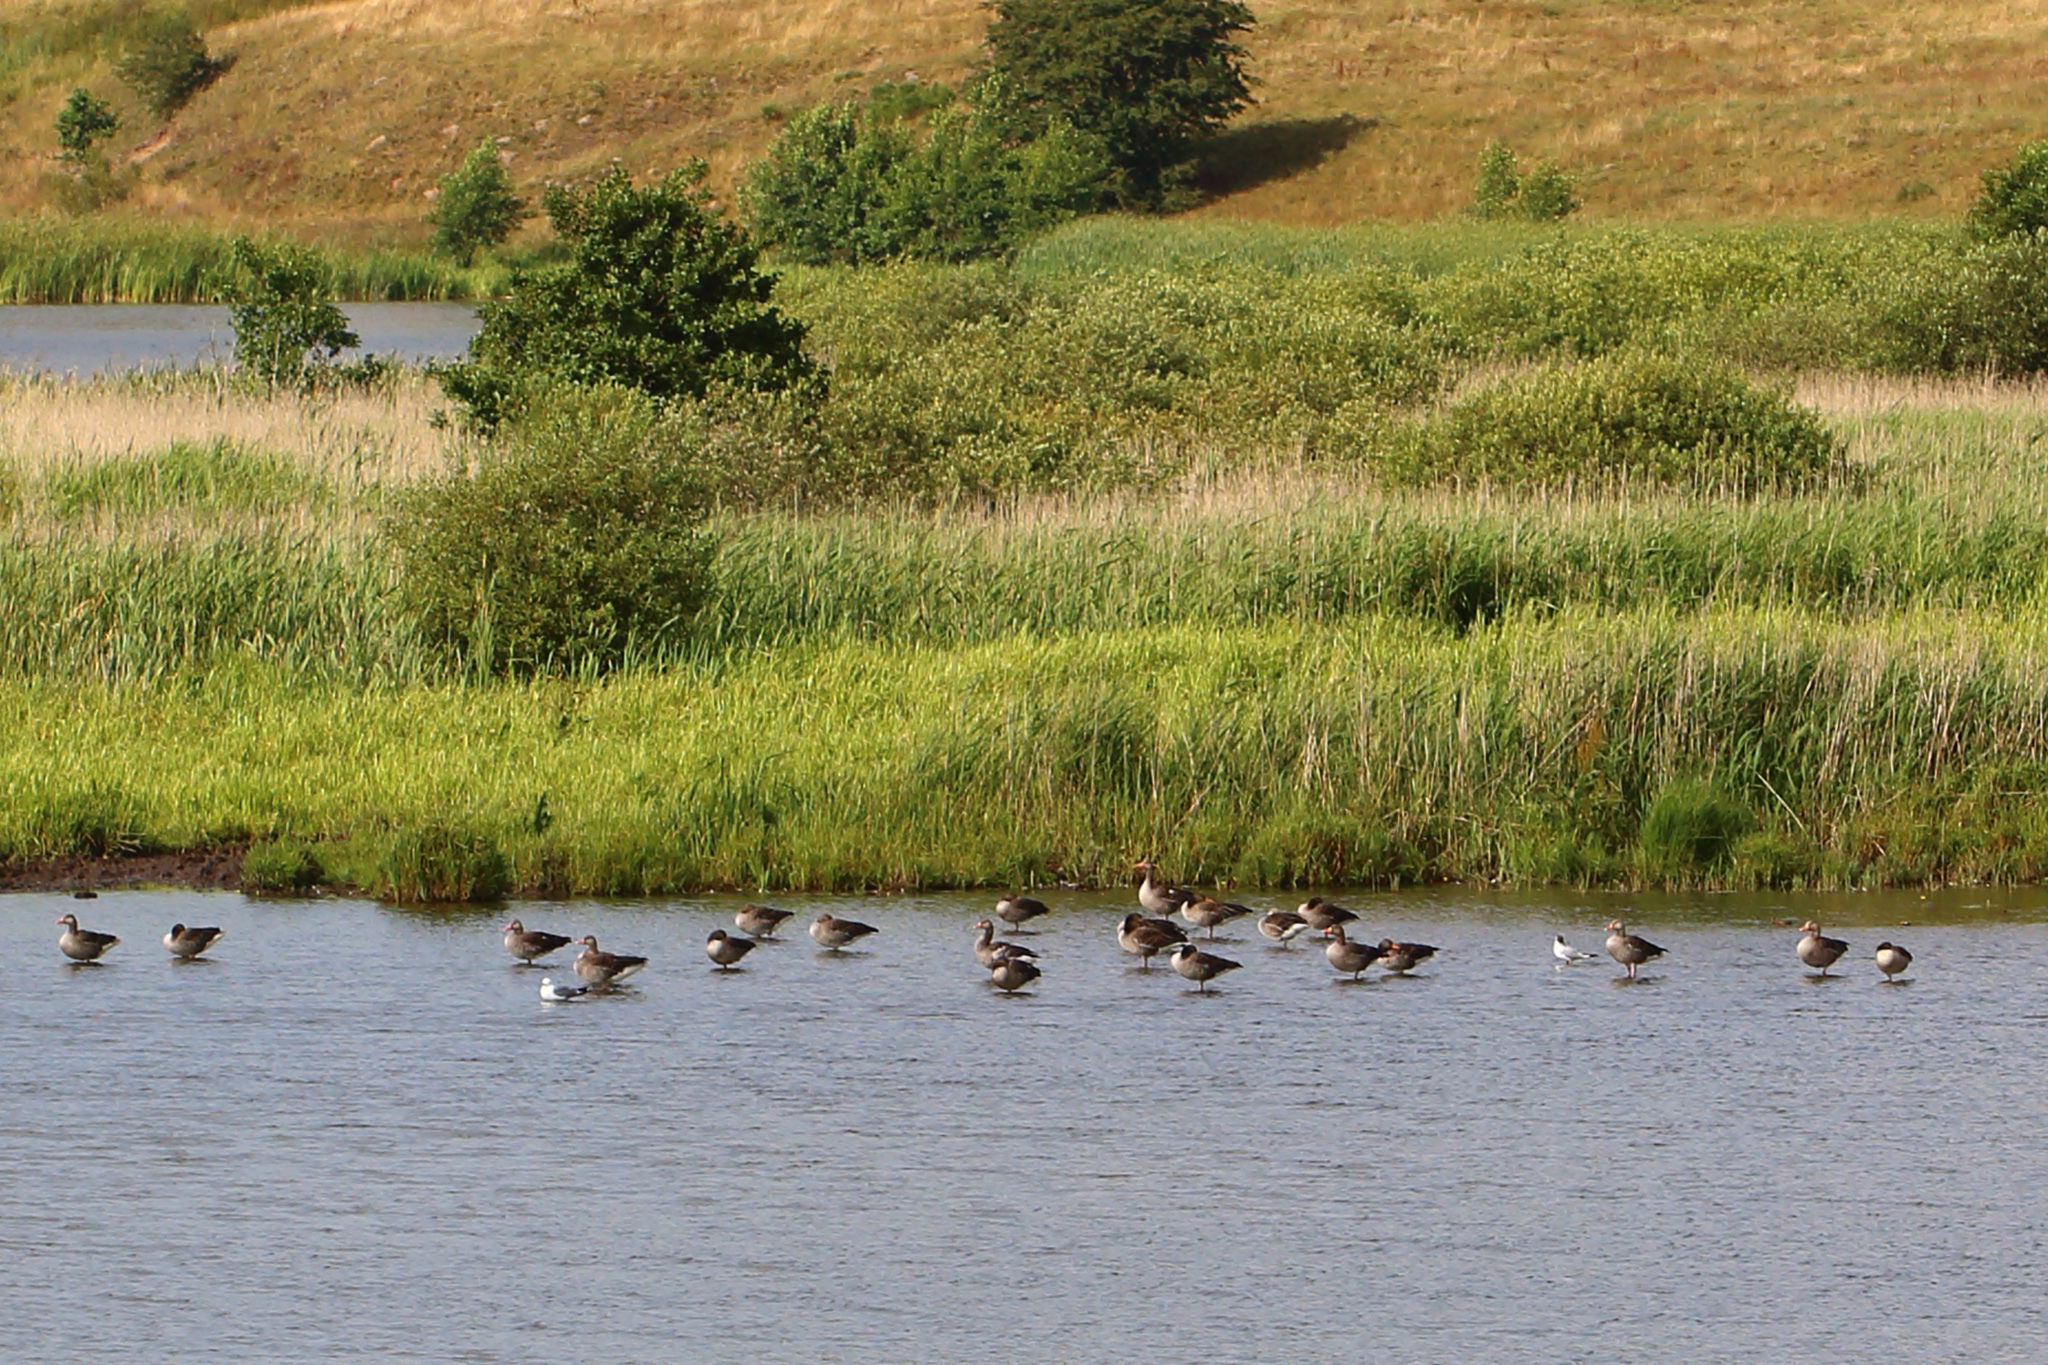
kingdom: Animalia
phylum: Chordata
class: Aves
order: Anseriformes
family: Anatidae
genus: Anser
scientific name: Anser anser
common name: Greylag goose
